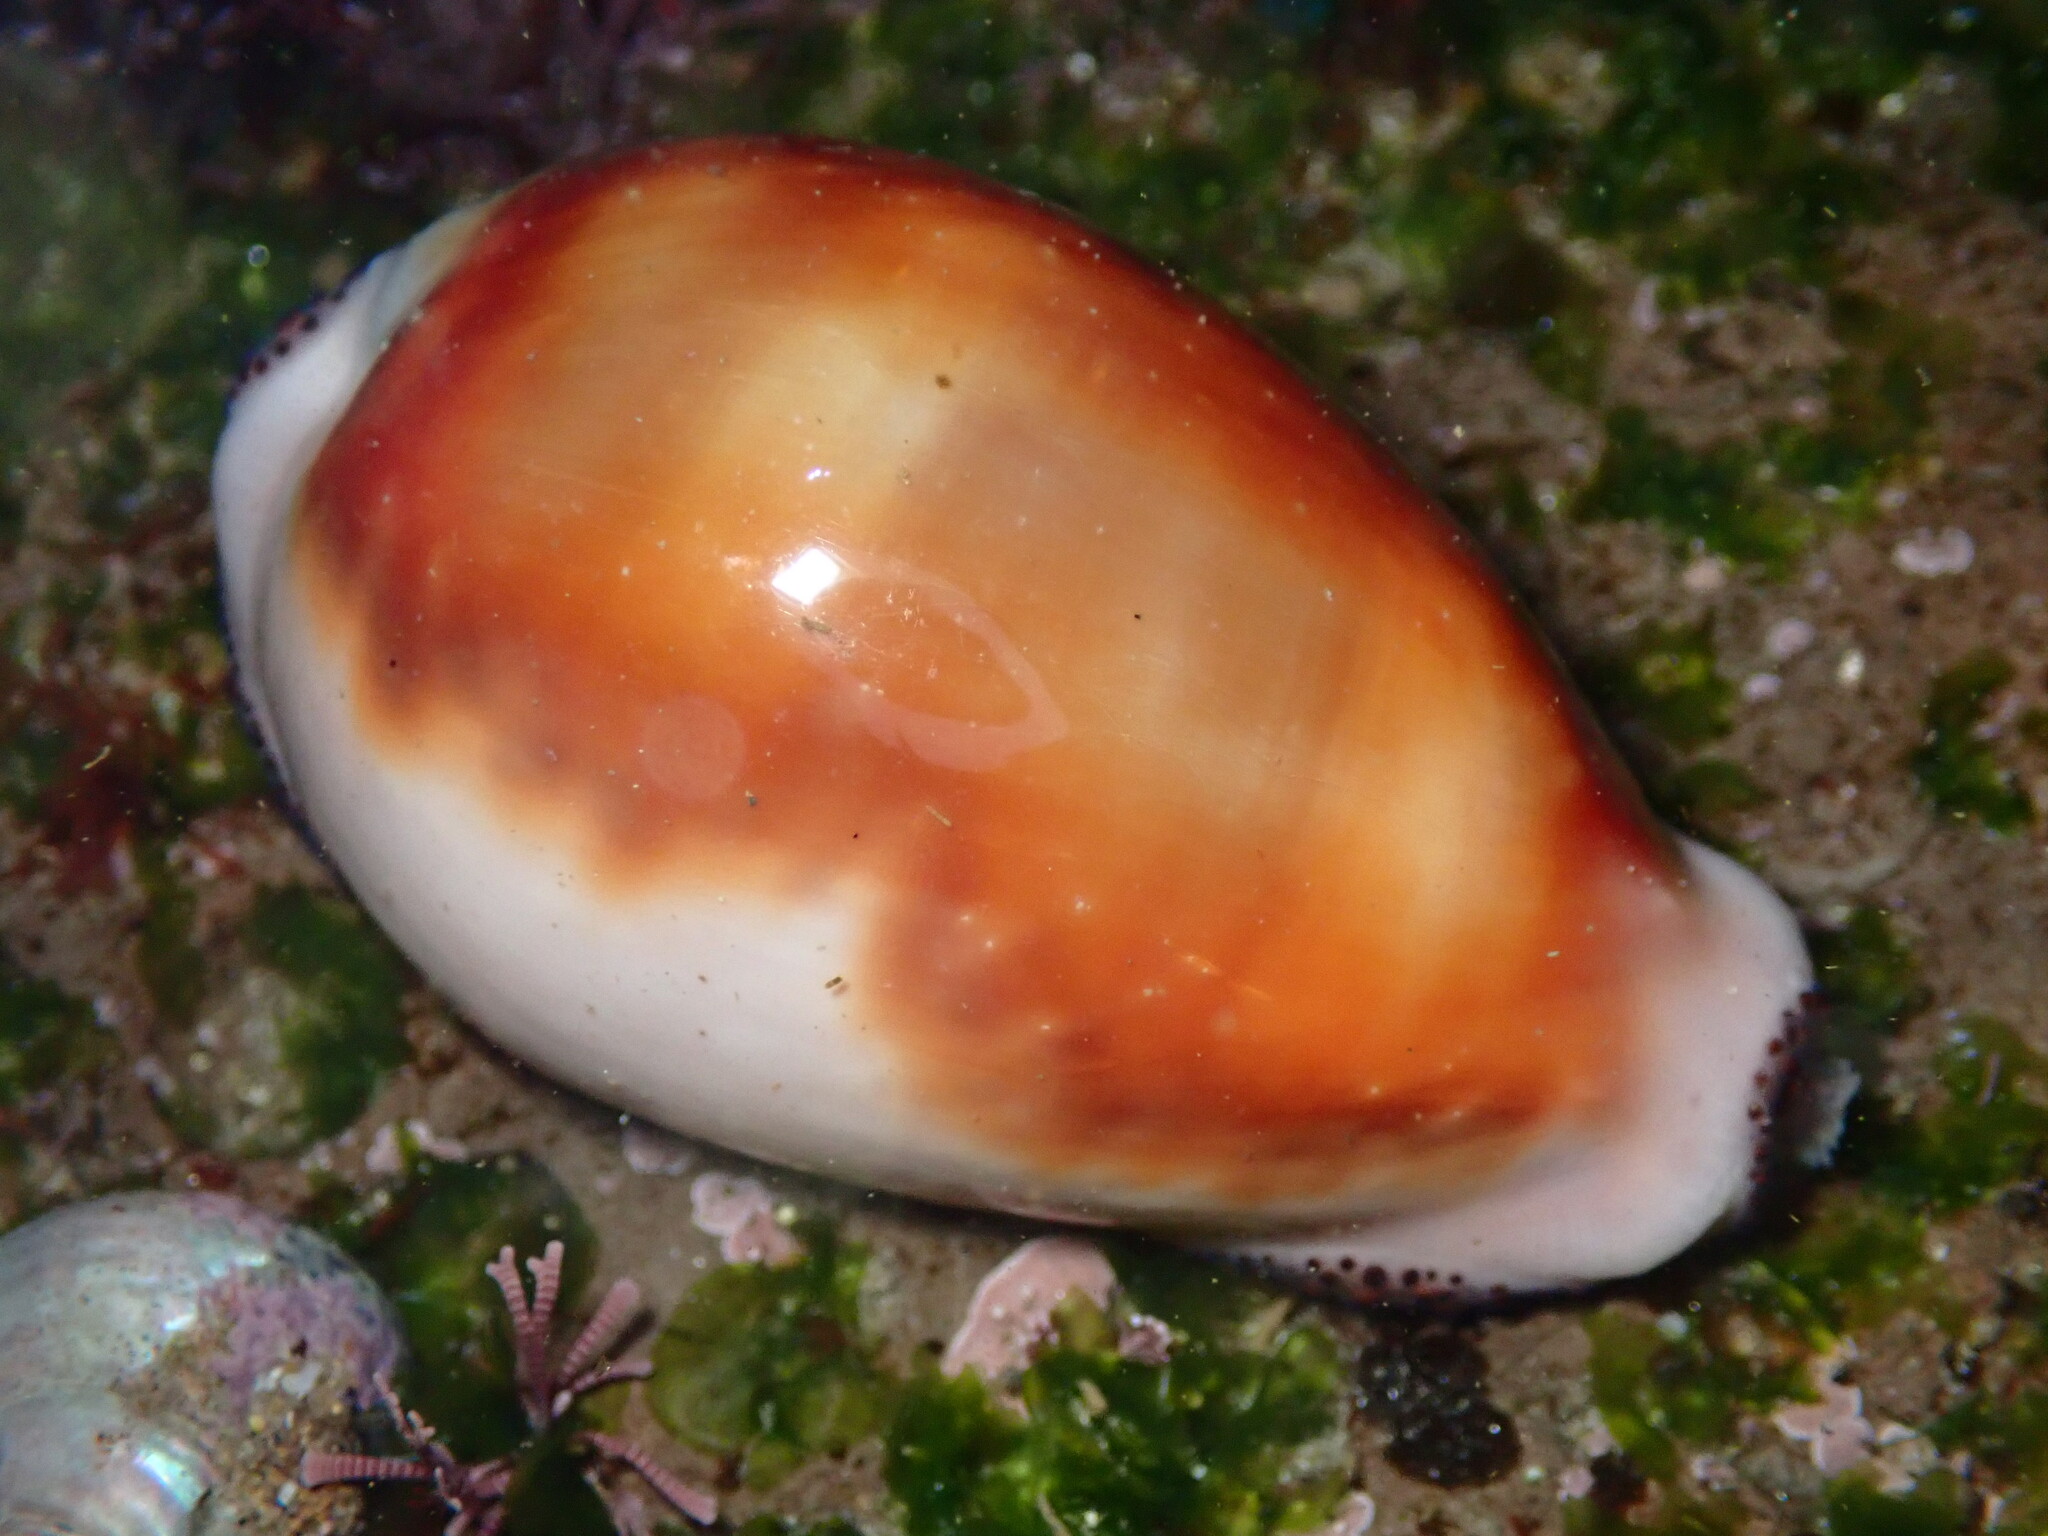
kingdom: Animalia
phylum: Mollusca
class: Gastropoda
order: Littorinimorpha
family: Cypraeidae
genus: Neobernaya
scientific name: Neobernaya spadicea
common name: Chestnut cowrie
